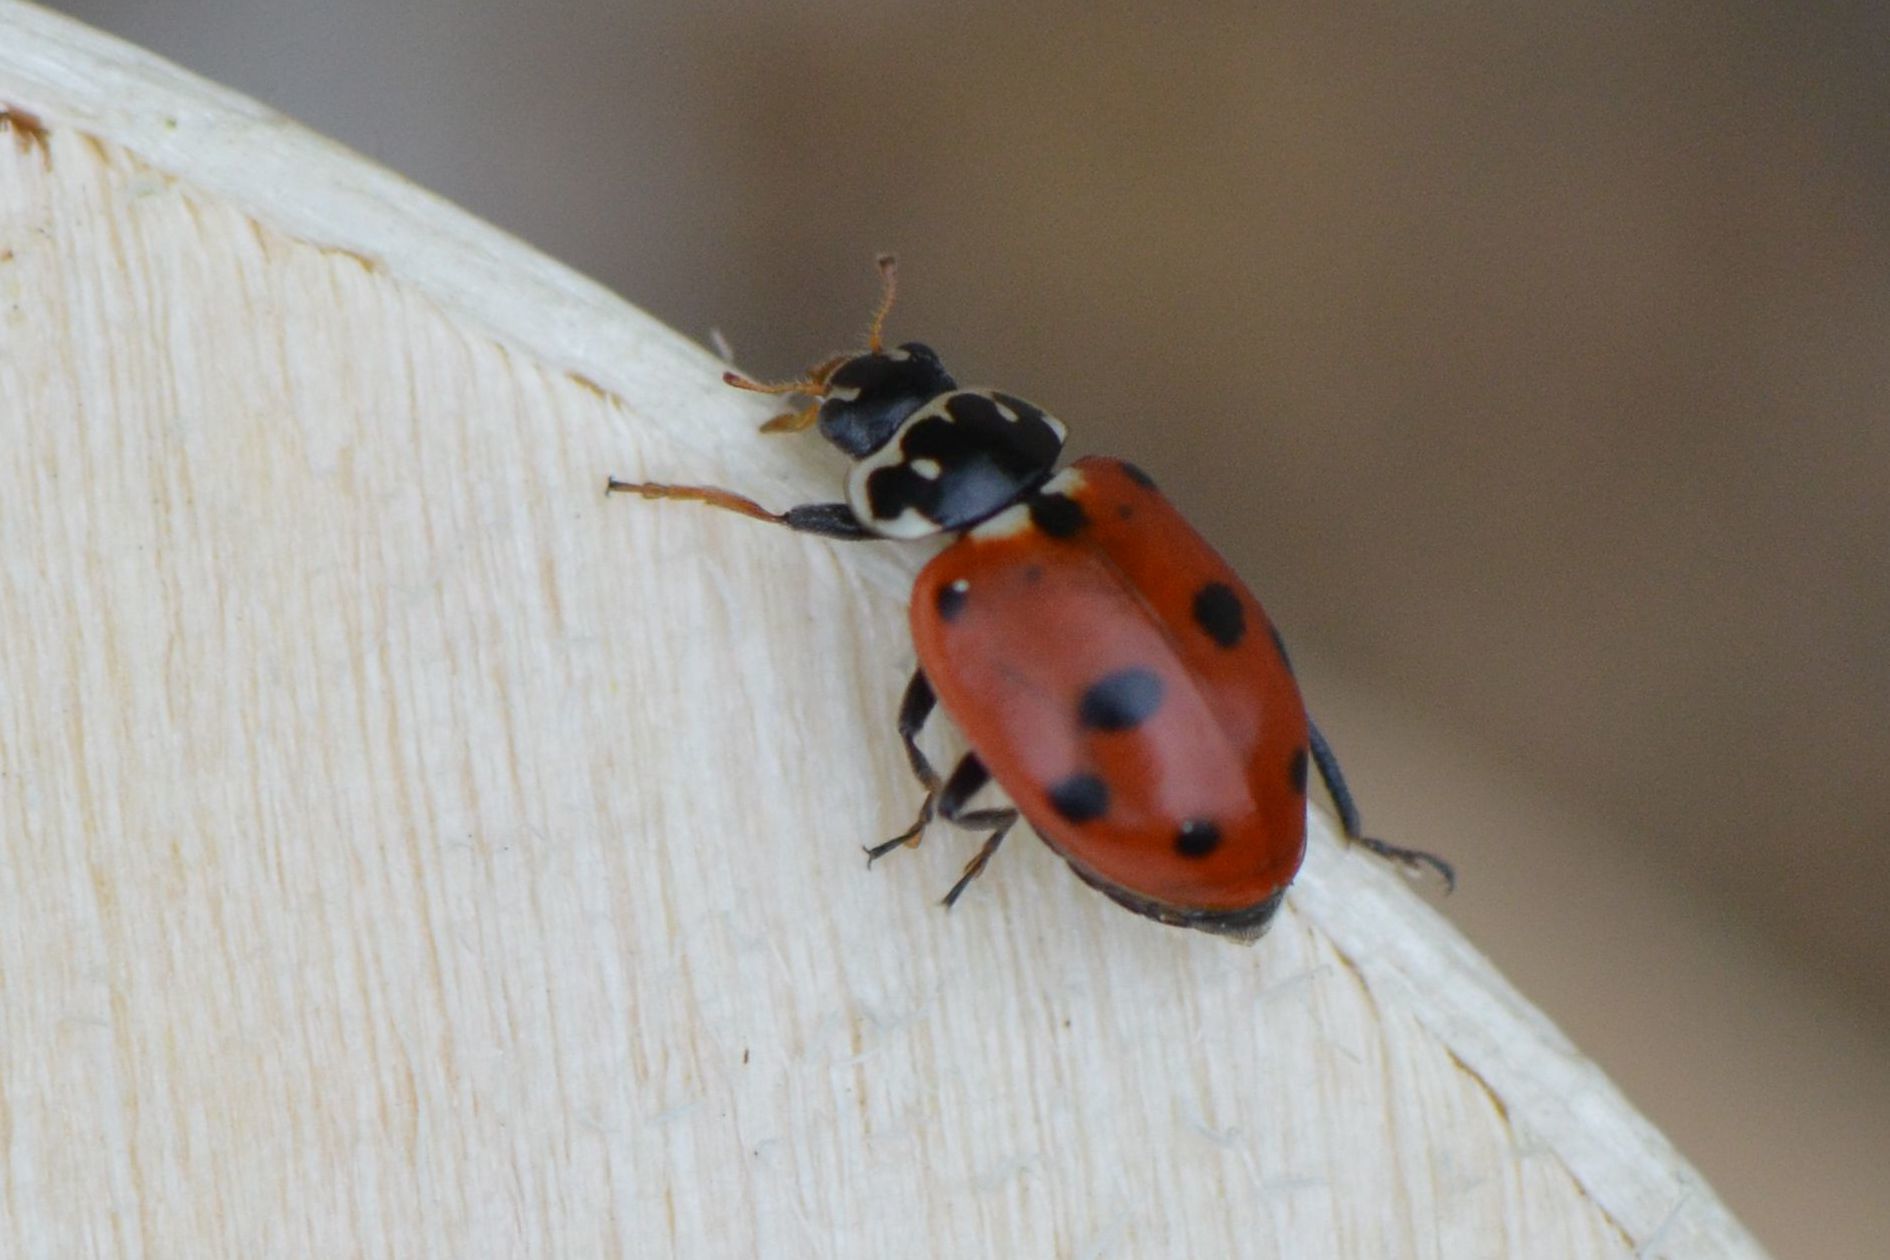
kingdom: Animalia
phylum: Arthropoda
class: Insecta
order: Coleoptera
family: Coccinellidae
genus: Hippodamia
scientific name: Hippodamia variegata
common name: Ladybird beetle
